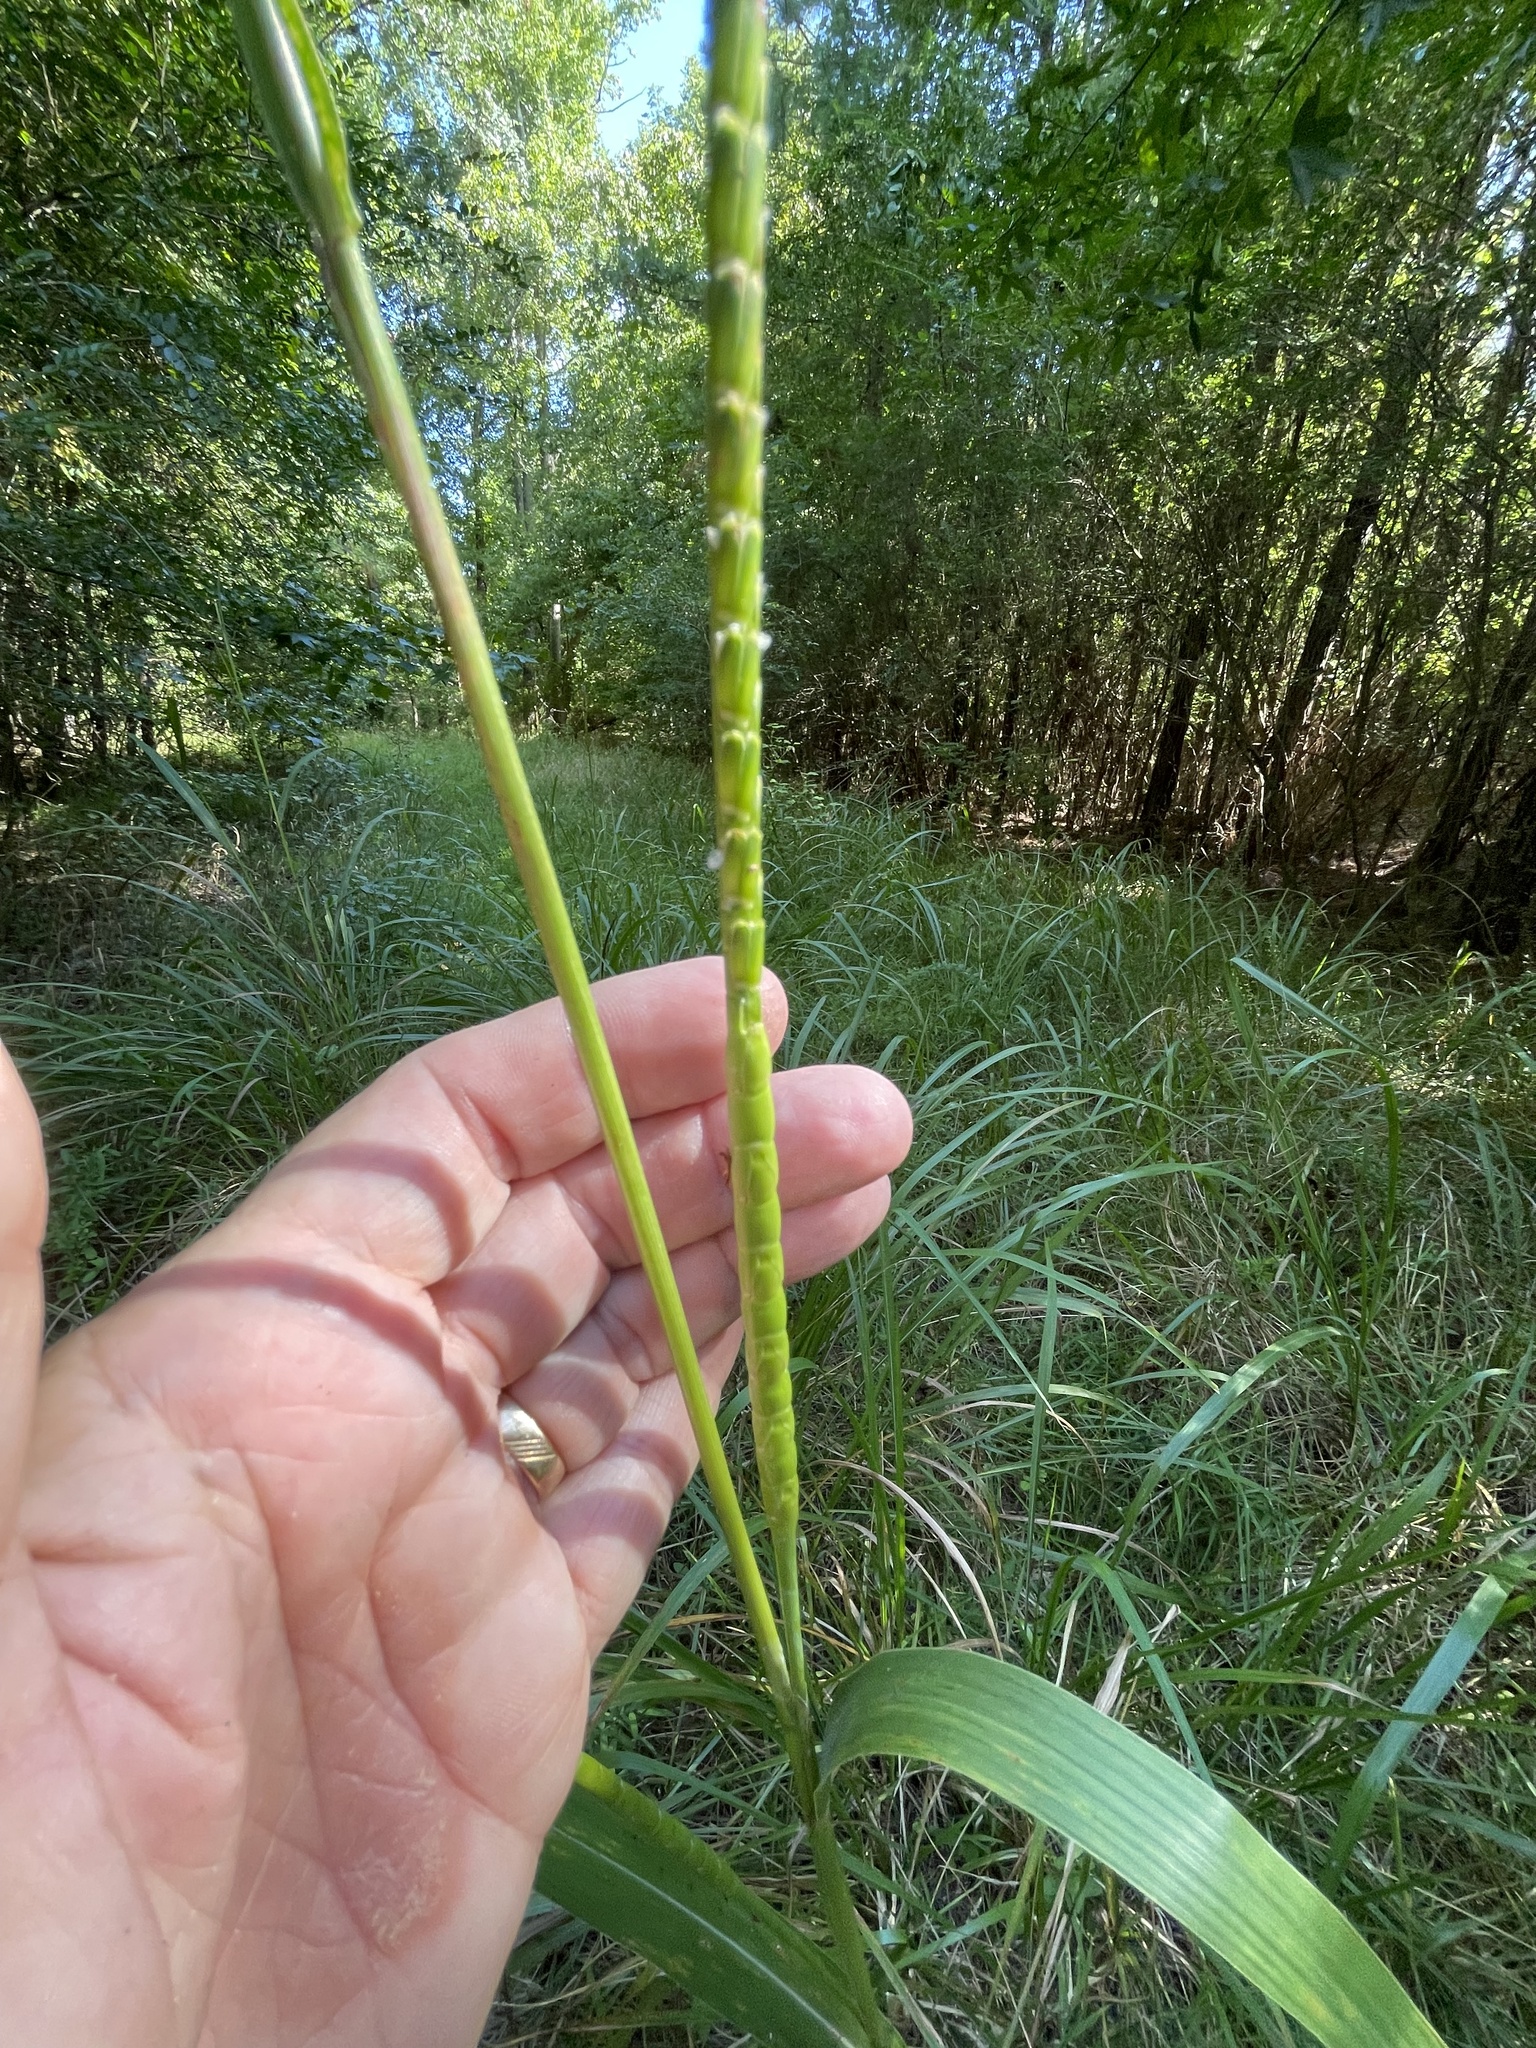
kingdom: Plantae
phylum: Tracheophyta
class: Liliopsida
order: Poales
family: Poaceae
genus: Tripsacum
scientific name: Tripsacum dactyloides
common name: Buffalo-grass
